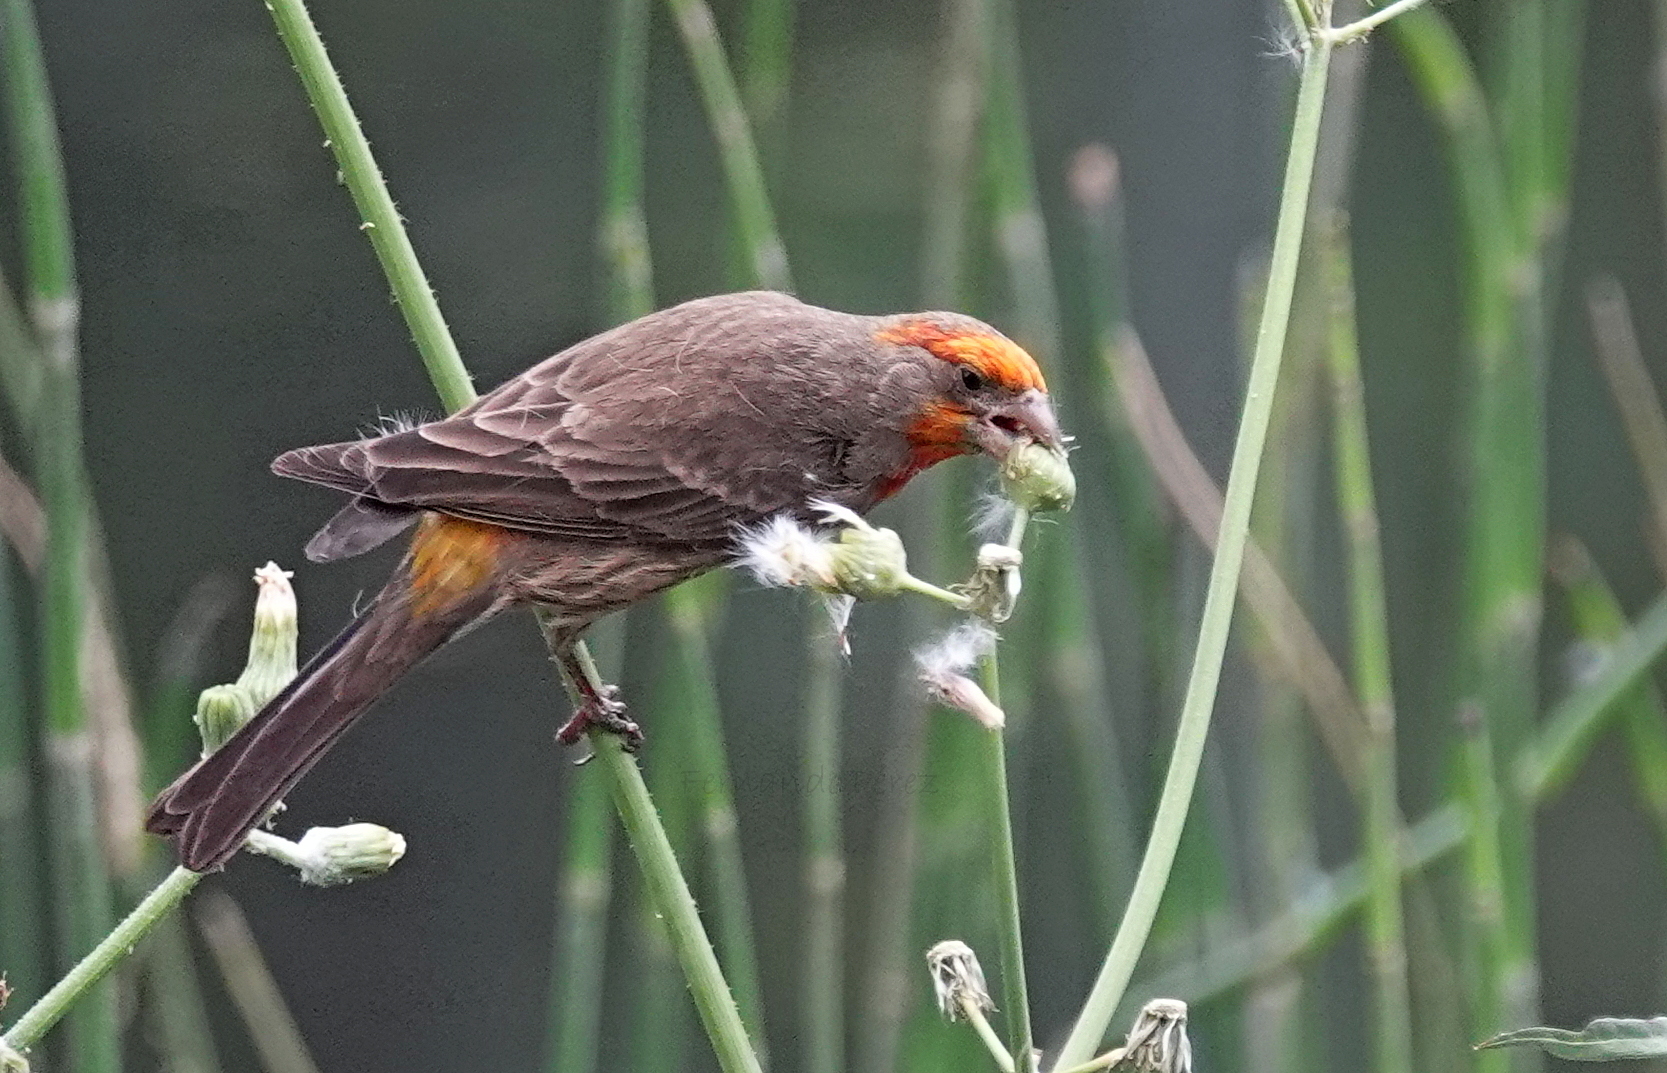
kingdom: Animalia
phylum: Chordata
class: Aves
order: Passeriformes
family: Fringillidae
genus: Haemorhous
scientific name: Haemorhous mexicanus
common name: House finch
